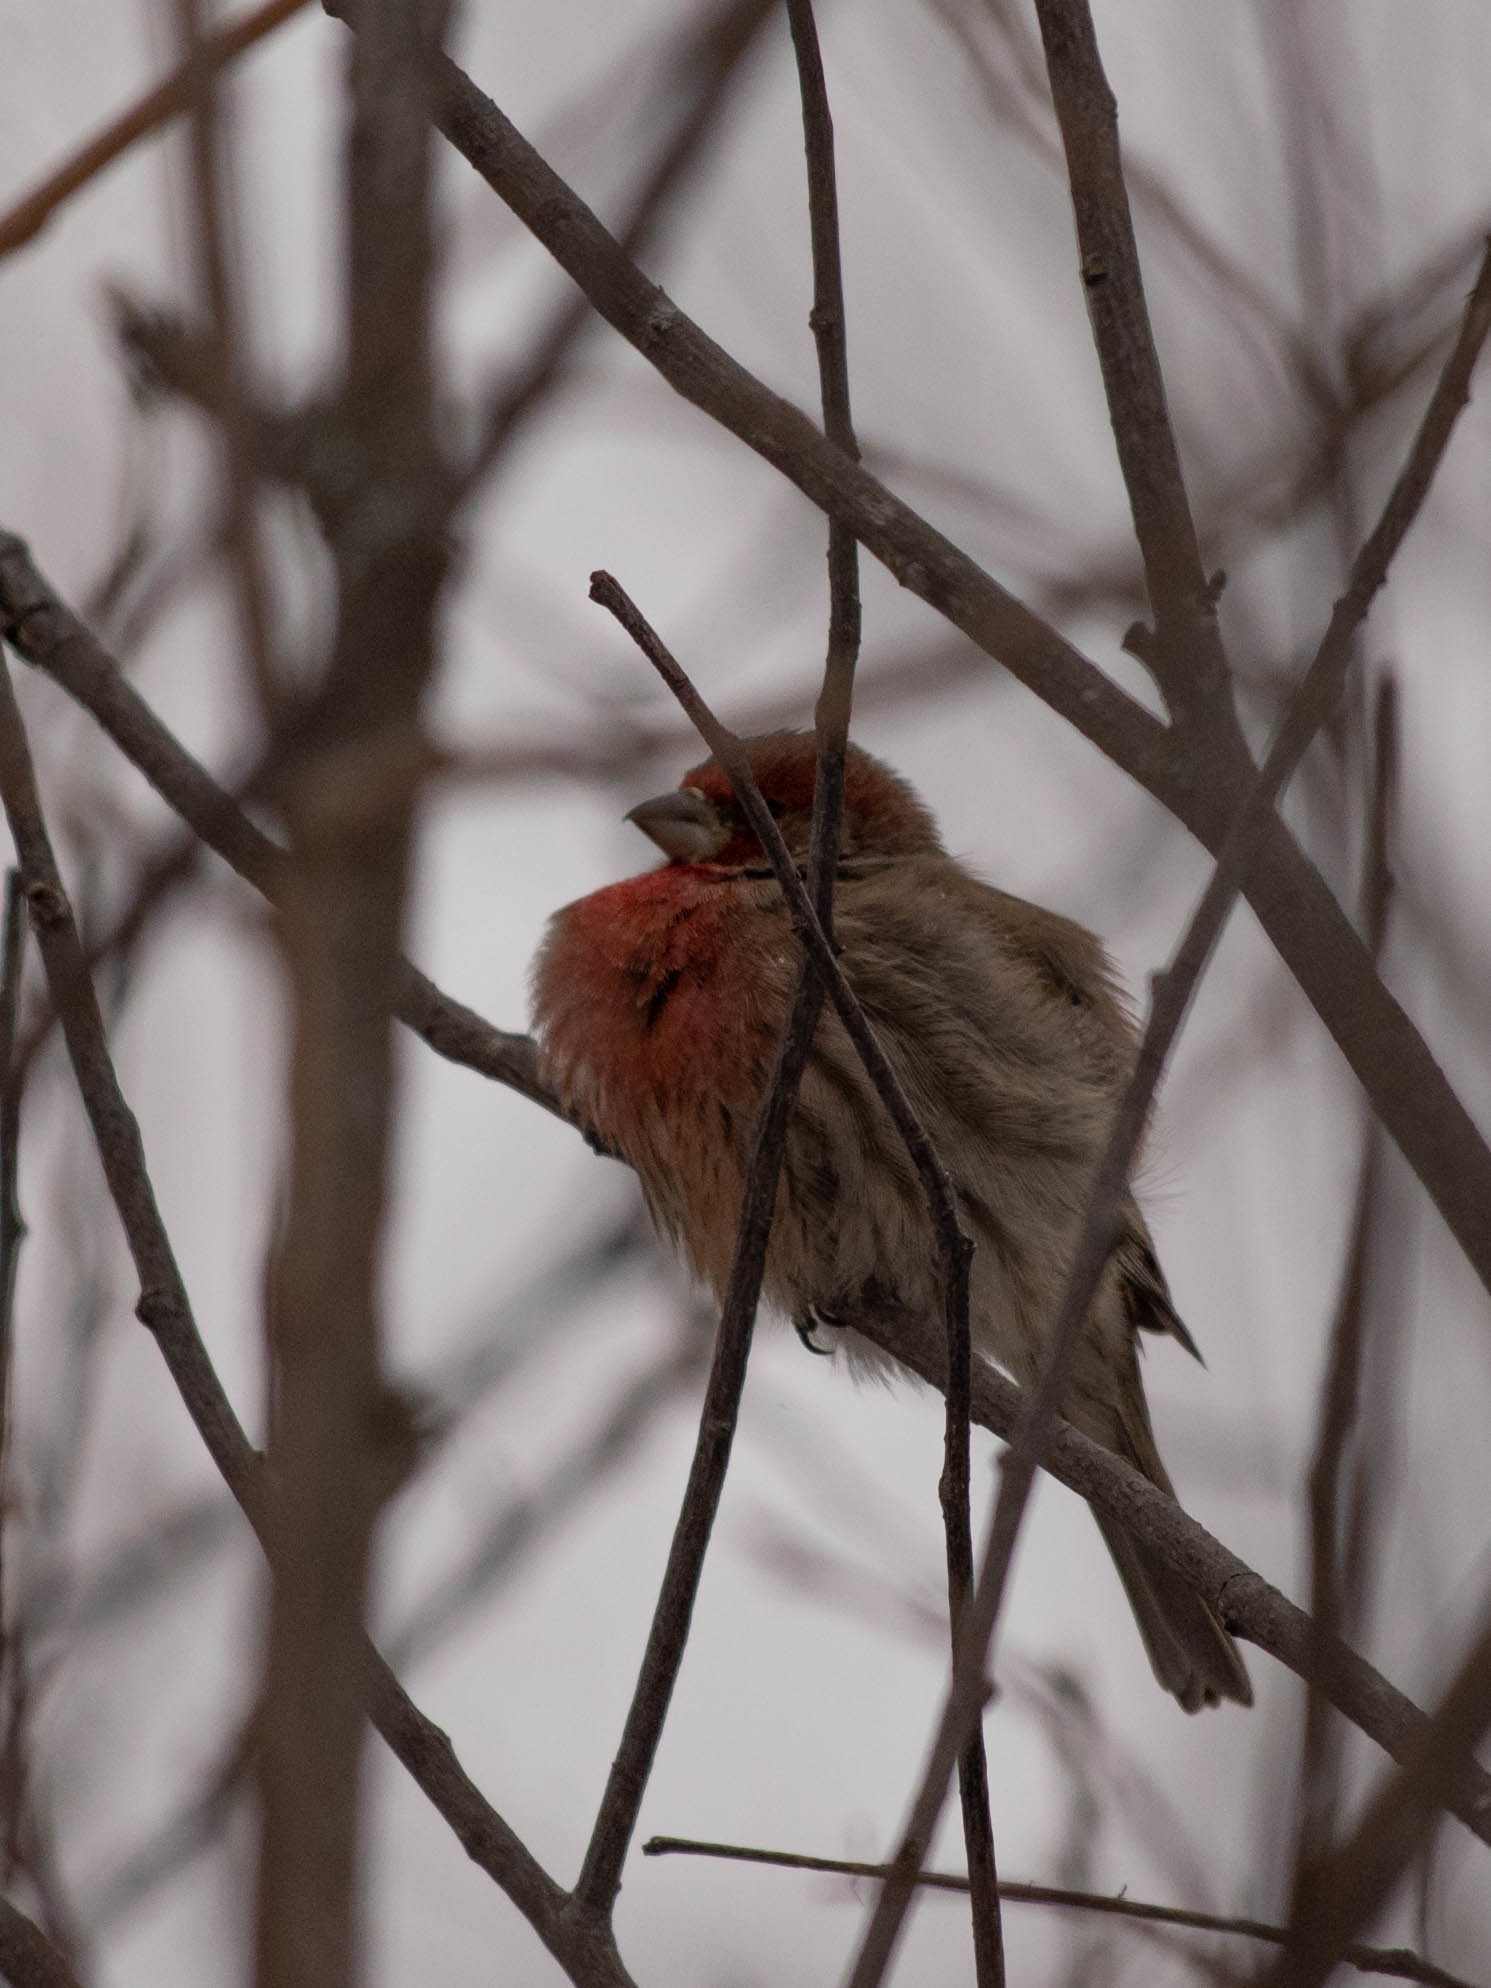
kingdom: Animalia
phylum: Chordata
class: Aves
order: Passeriformes
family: Fringillidae
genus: Haemorhous
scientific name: Haemorhous mexicanus
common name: House finch
